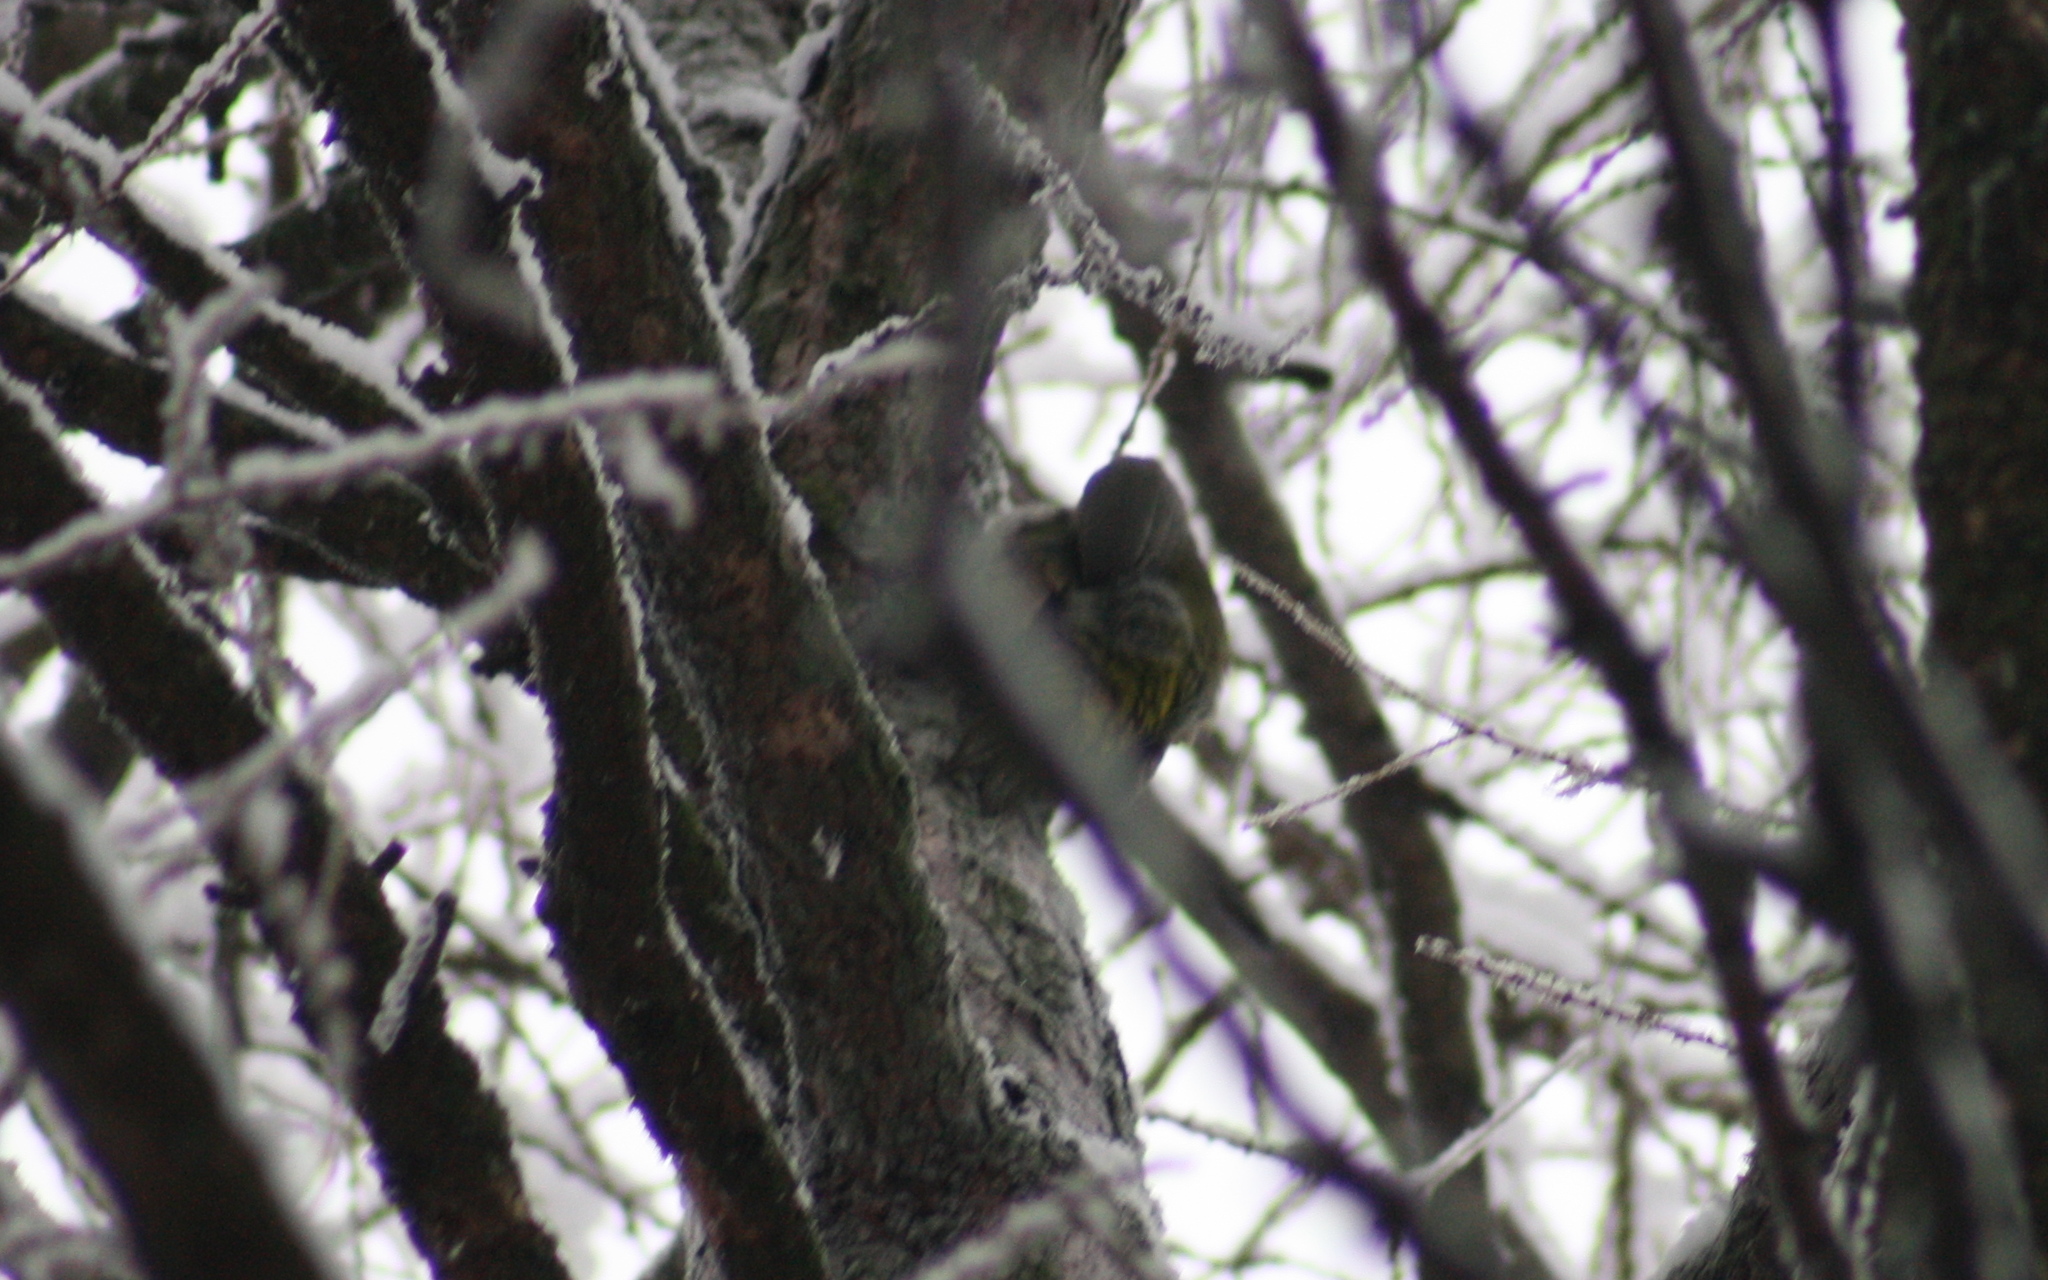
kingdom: Animalia
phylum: Chordata
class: Aves
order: Piciformes
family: Picidae
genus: Picus
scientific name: Picus canus
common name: Grey-headed woodpecker
